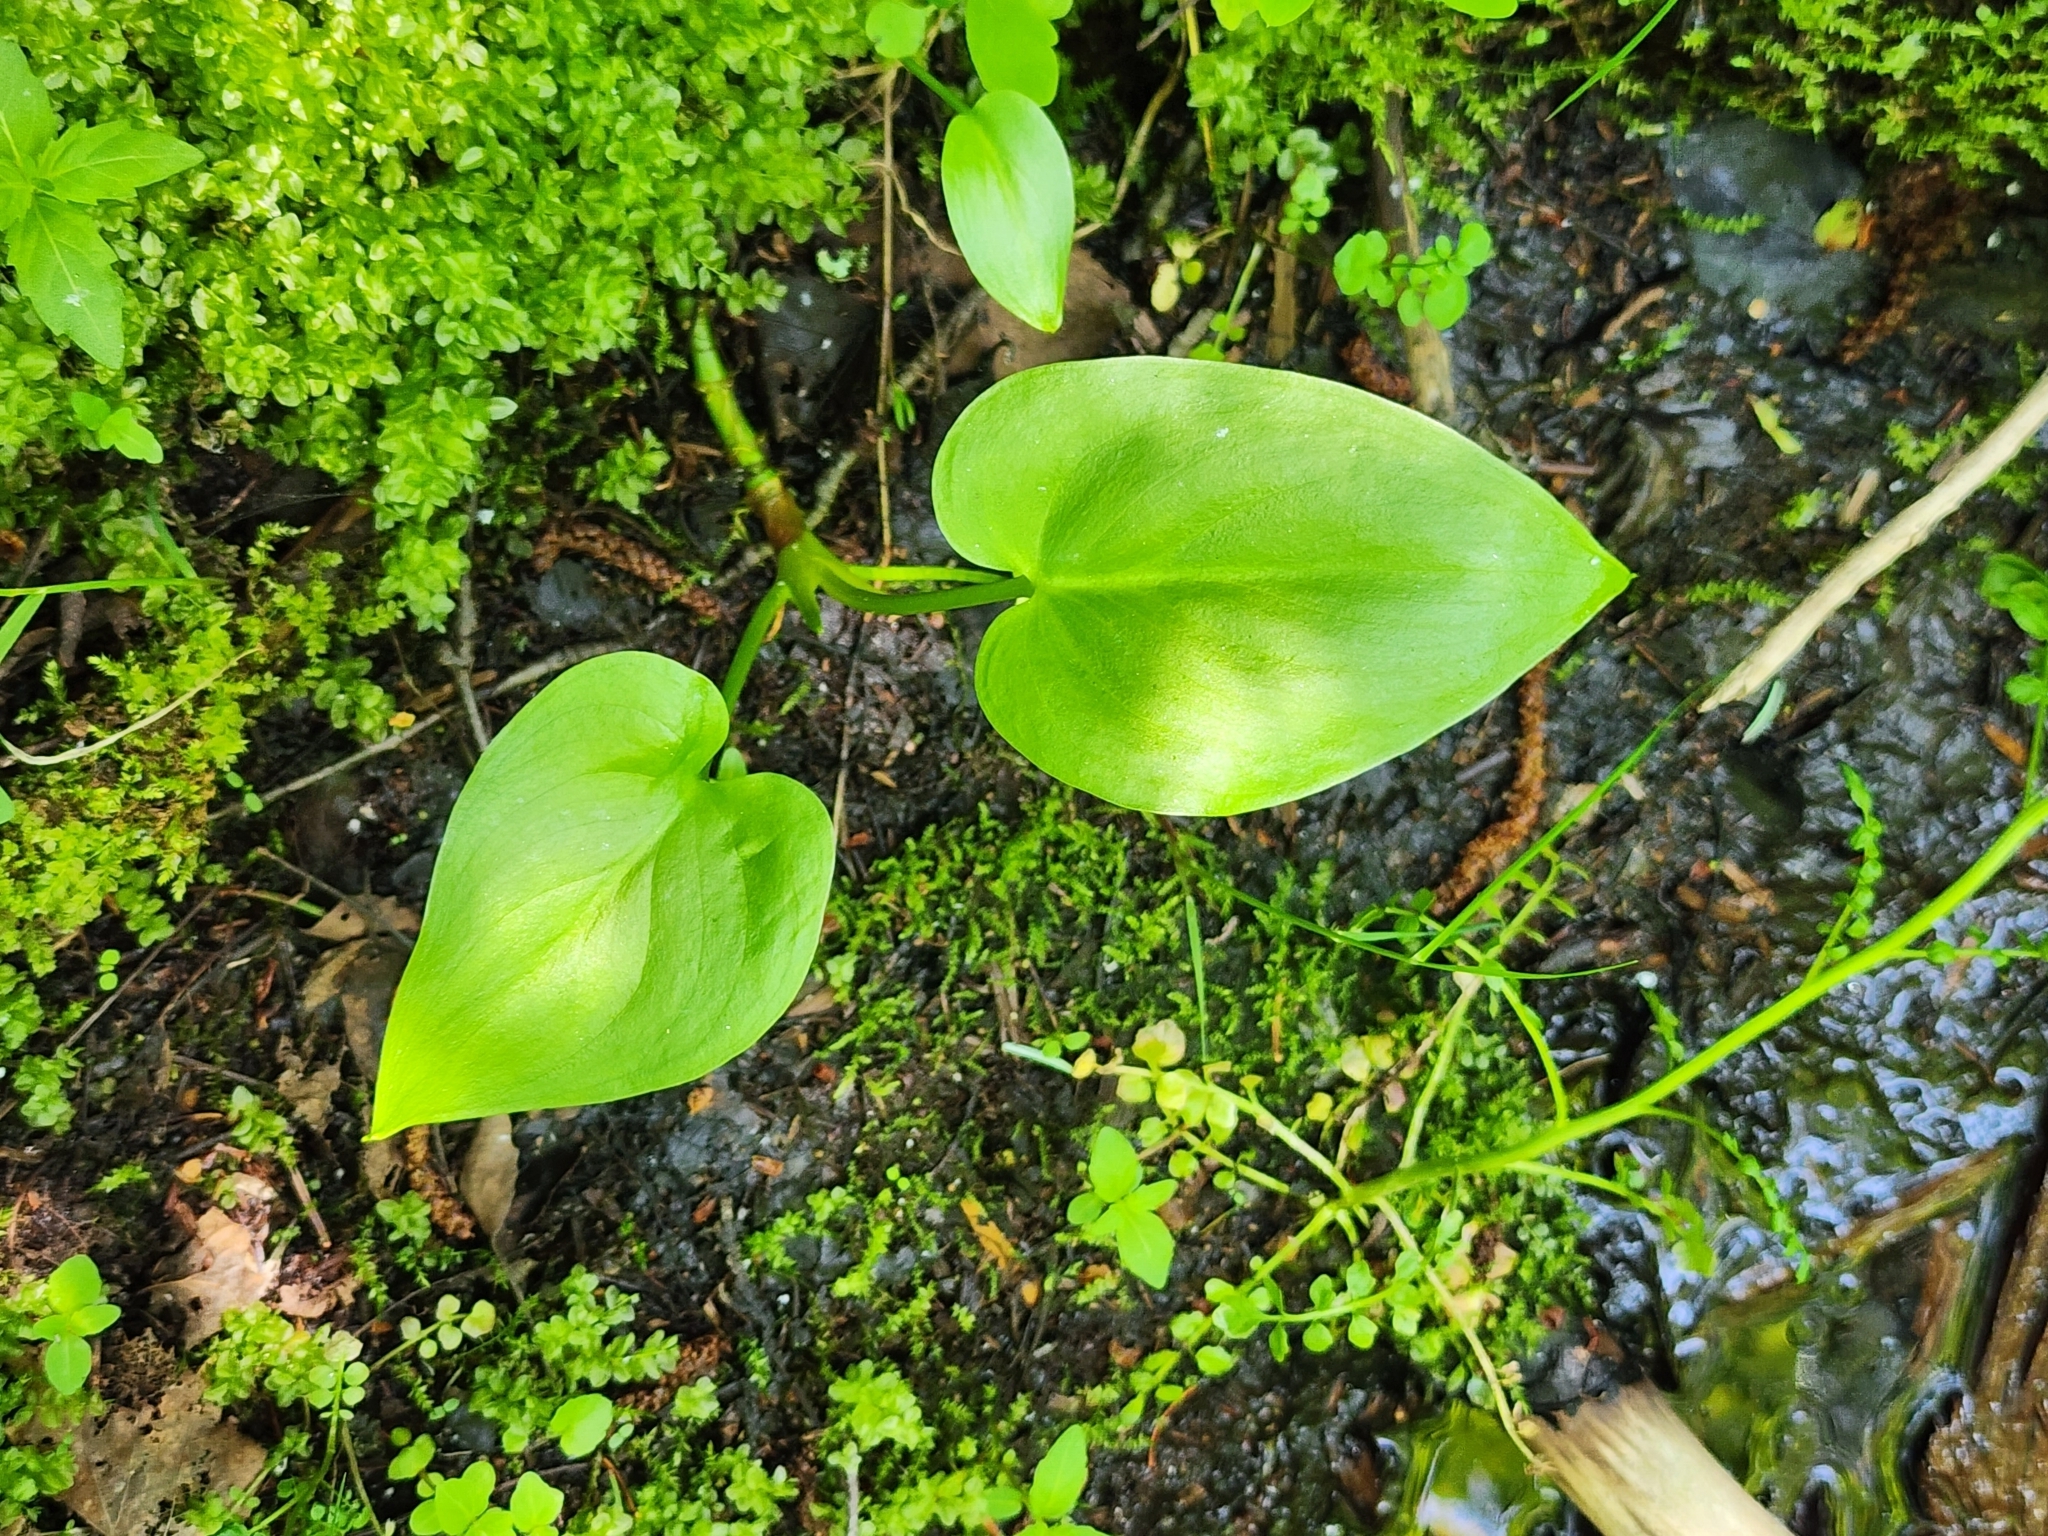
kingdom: Plantae
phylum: Tracheophyta
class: Liliopsida
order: Alismatales
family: Araceae
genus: Calla
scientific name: Calla palustris
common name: Bog arum
